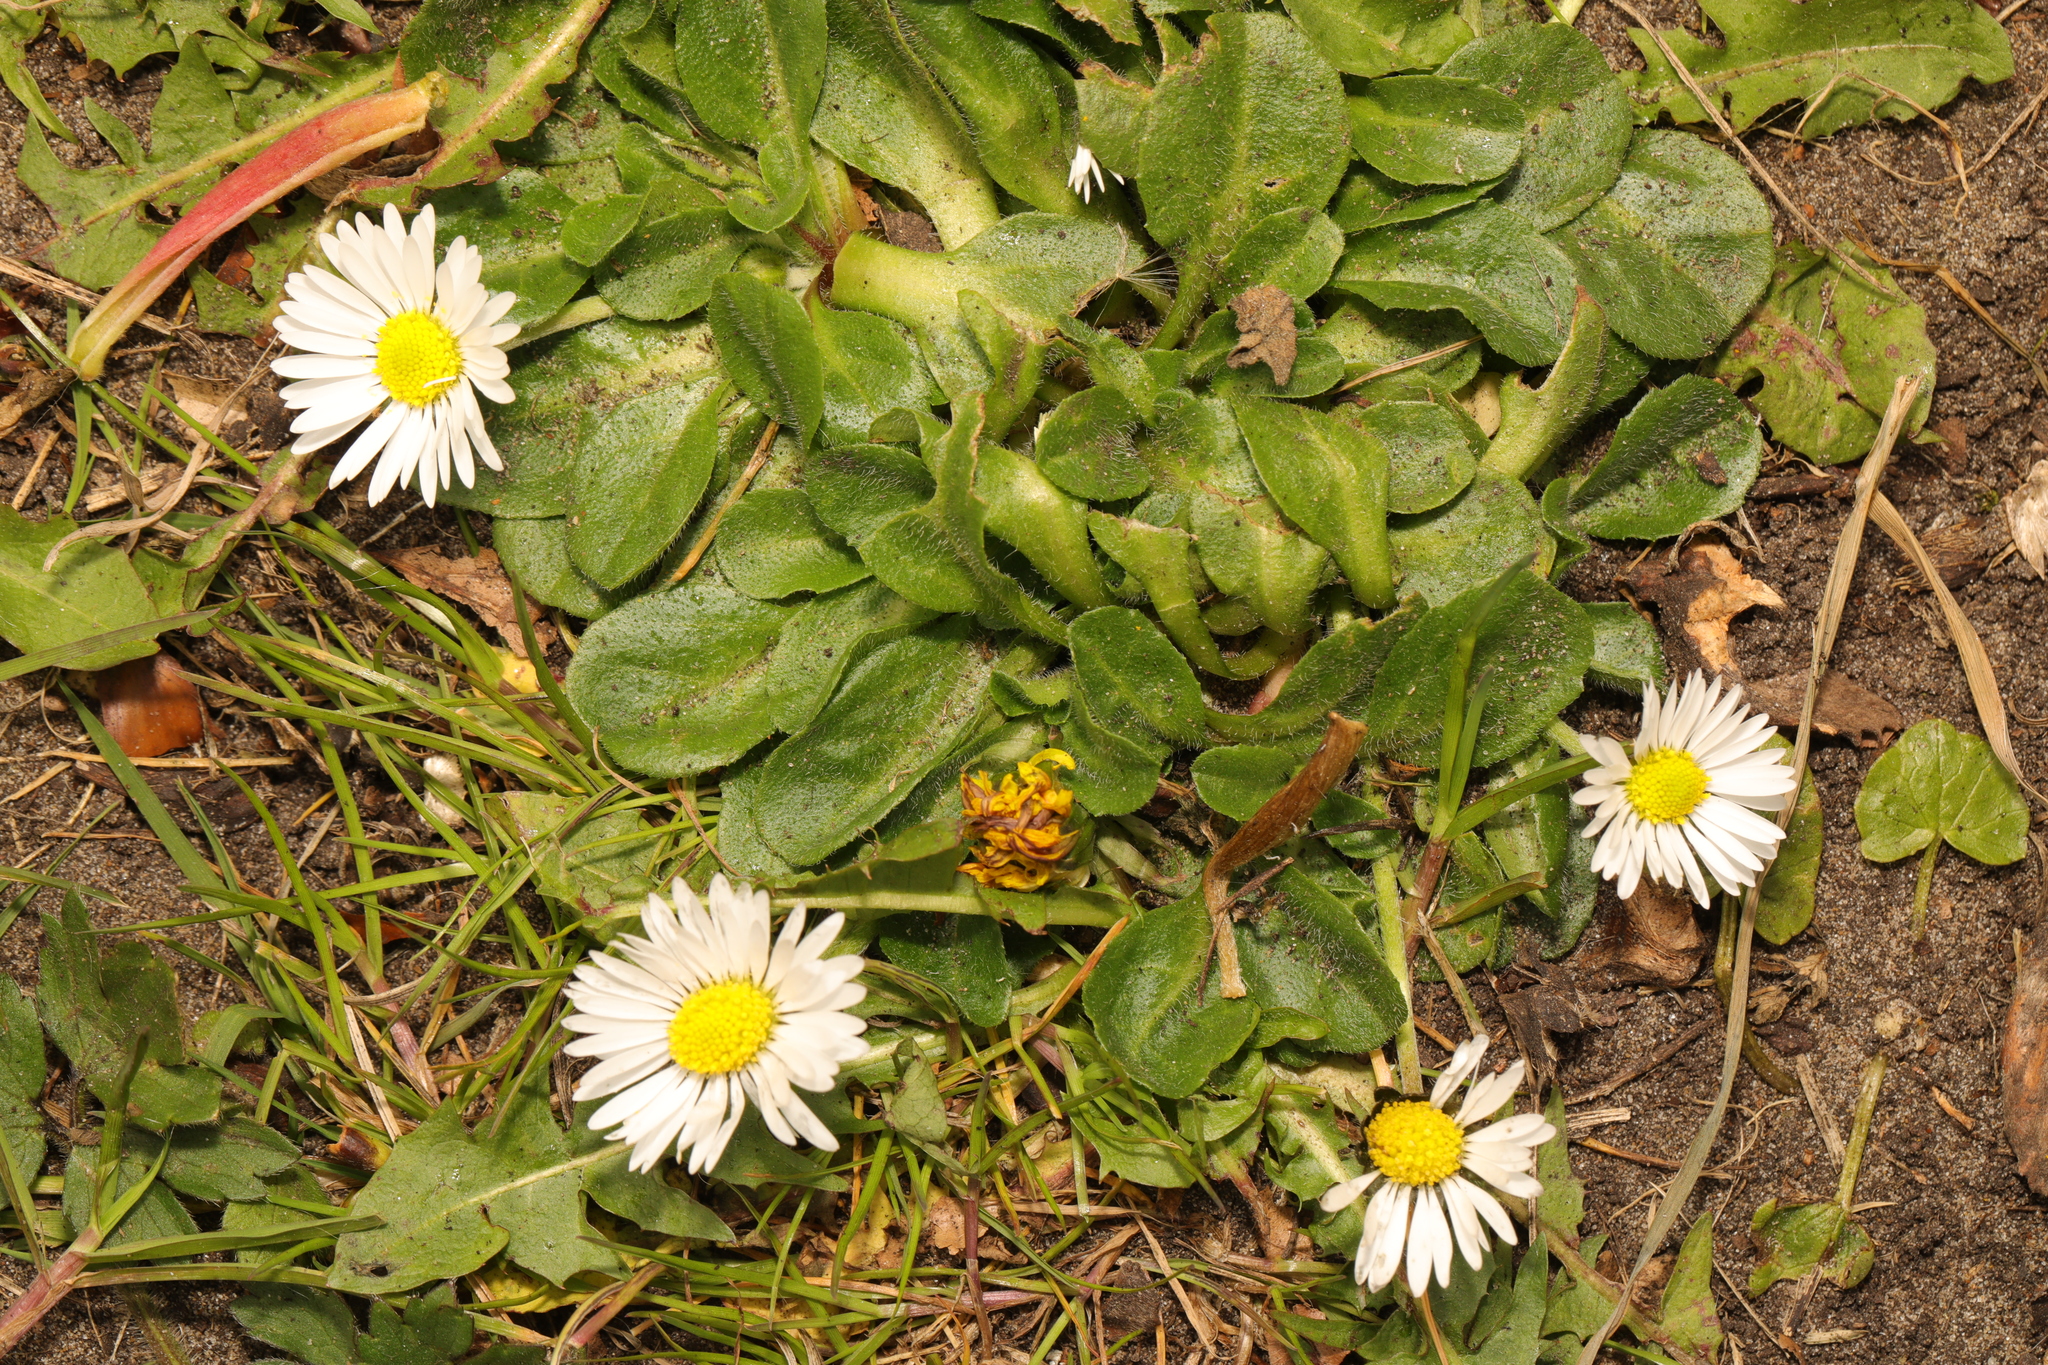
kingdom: Plantae
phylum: Tracheophyta
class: Magnoliopsida
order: Asterales
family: Asteraceae
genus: Bellis
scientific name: Bellis perennis
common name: Lawndaisy
